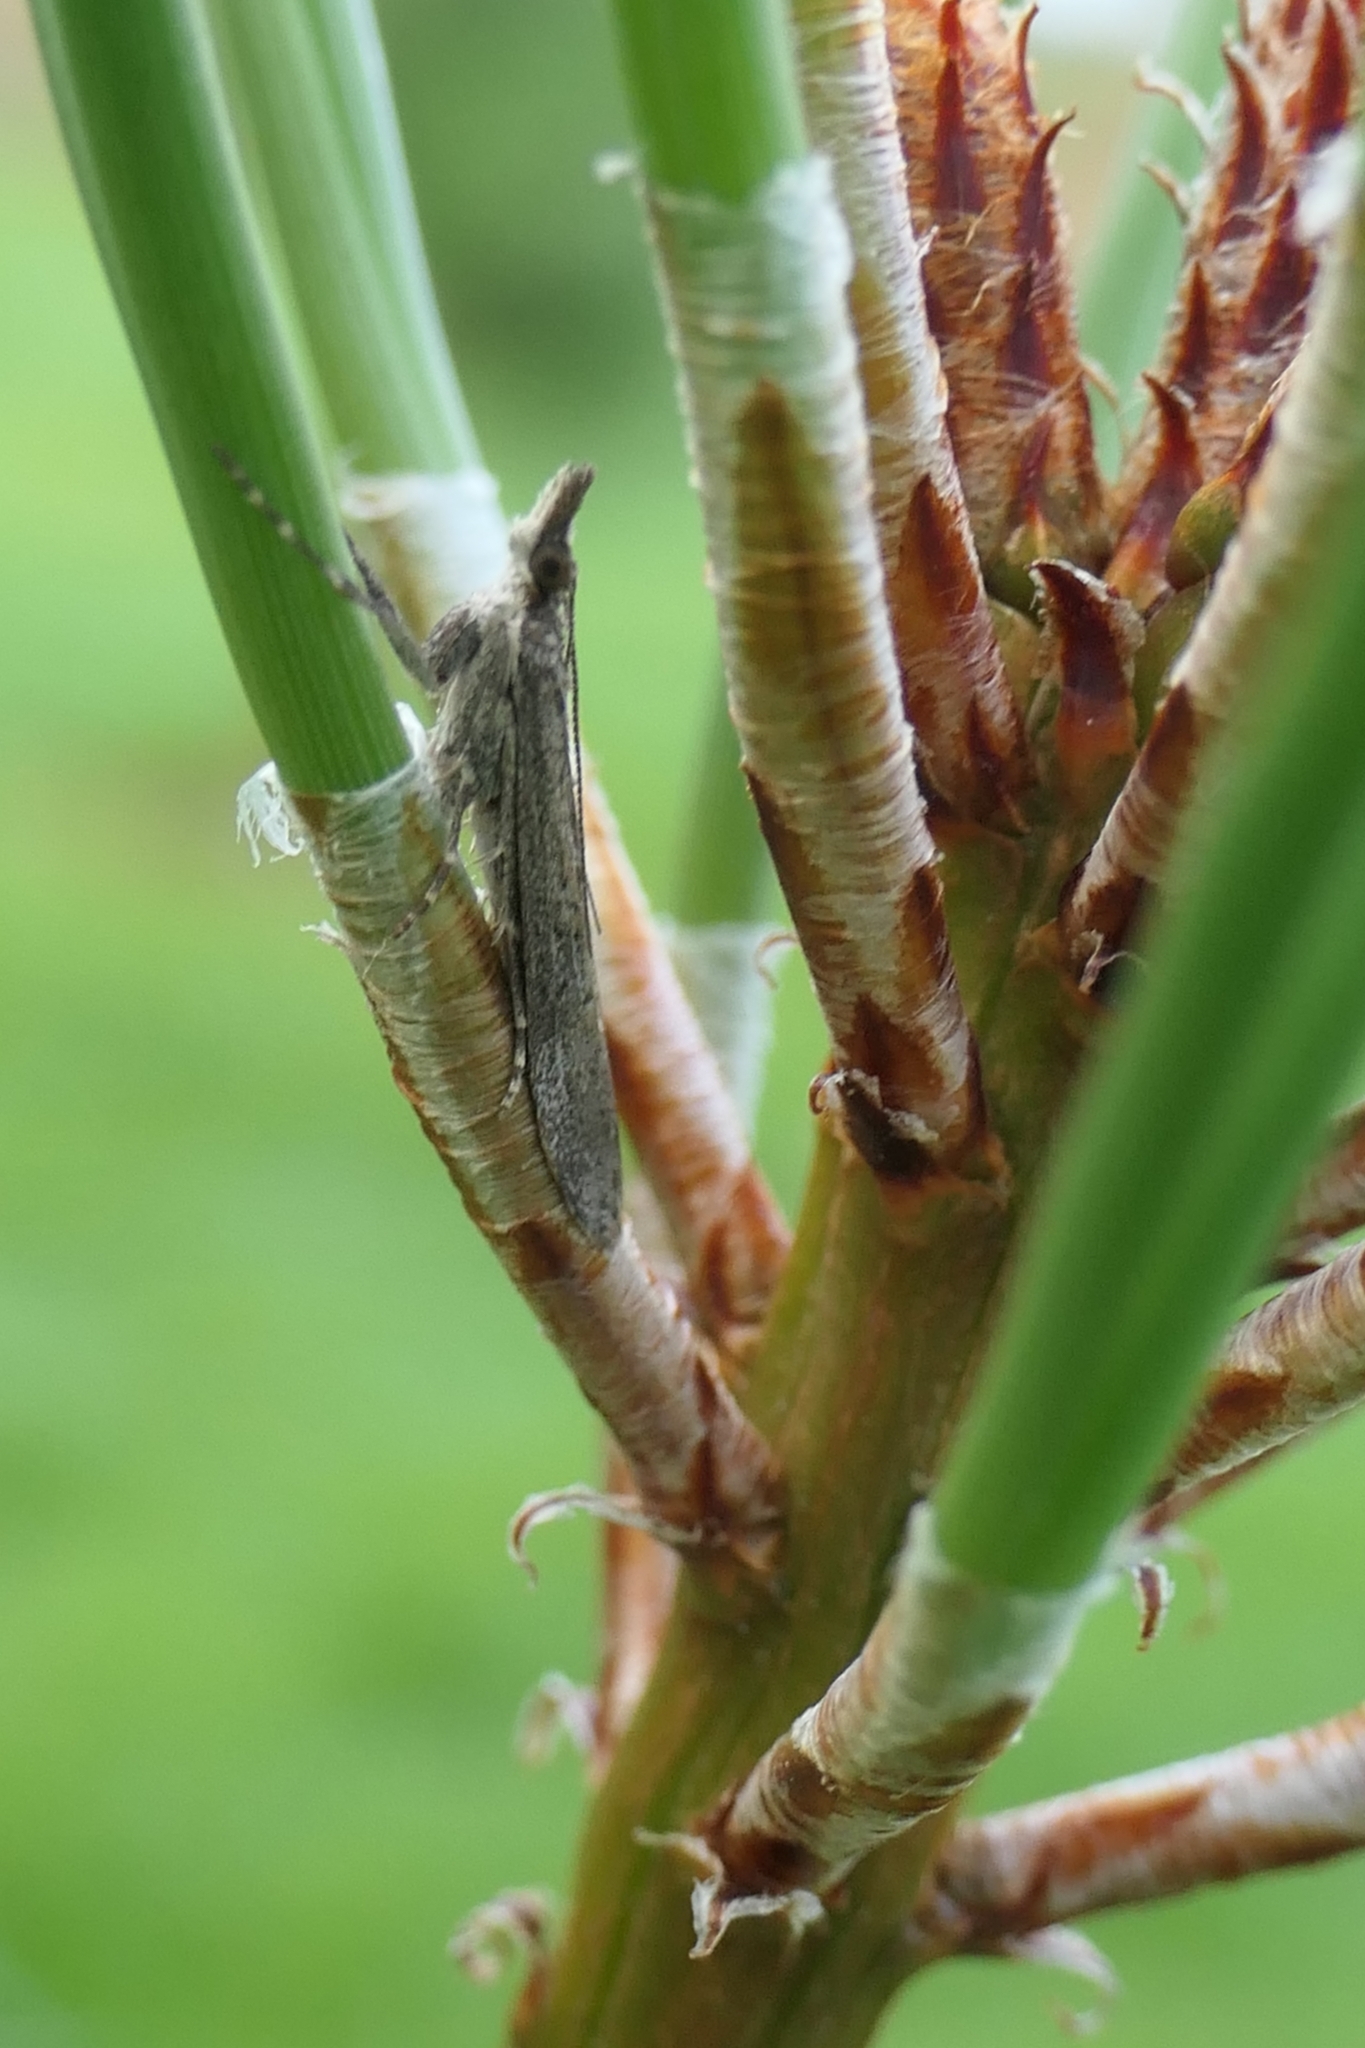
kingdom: Animalia
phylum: Arthropoda
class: Insecta
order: Lepidoptera
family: Crambidae
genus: Eudonia
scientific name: Eudonia leptalea
